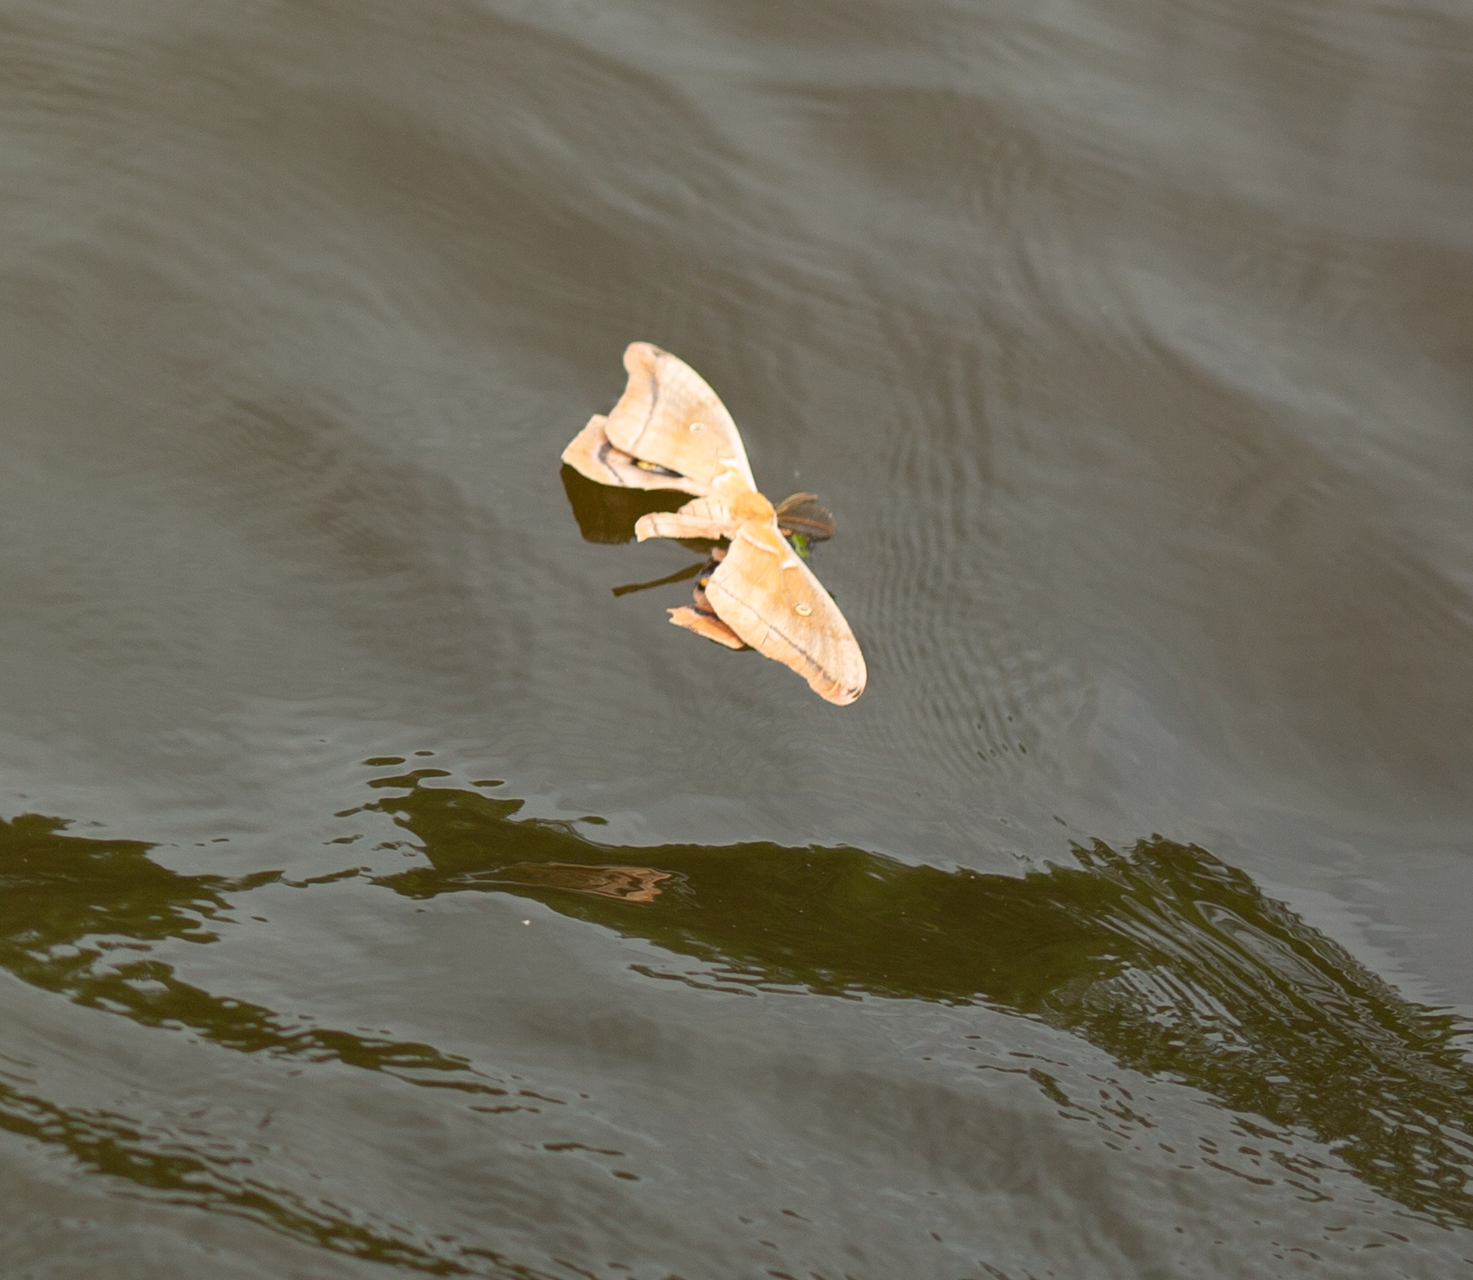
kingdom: Animalia
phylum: Arthropoda
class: Insecta
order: Lepidoptera
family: Saturniidae
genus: Antheraea
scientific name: Antheraea polyphemus
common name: Polyphemus moth
